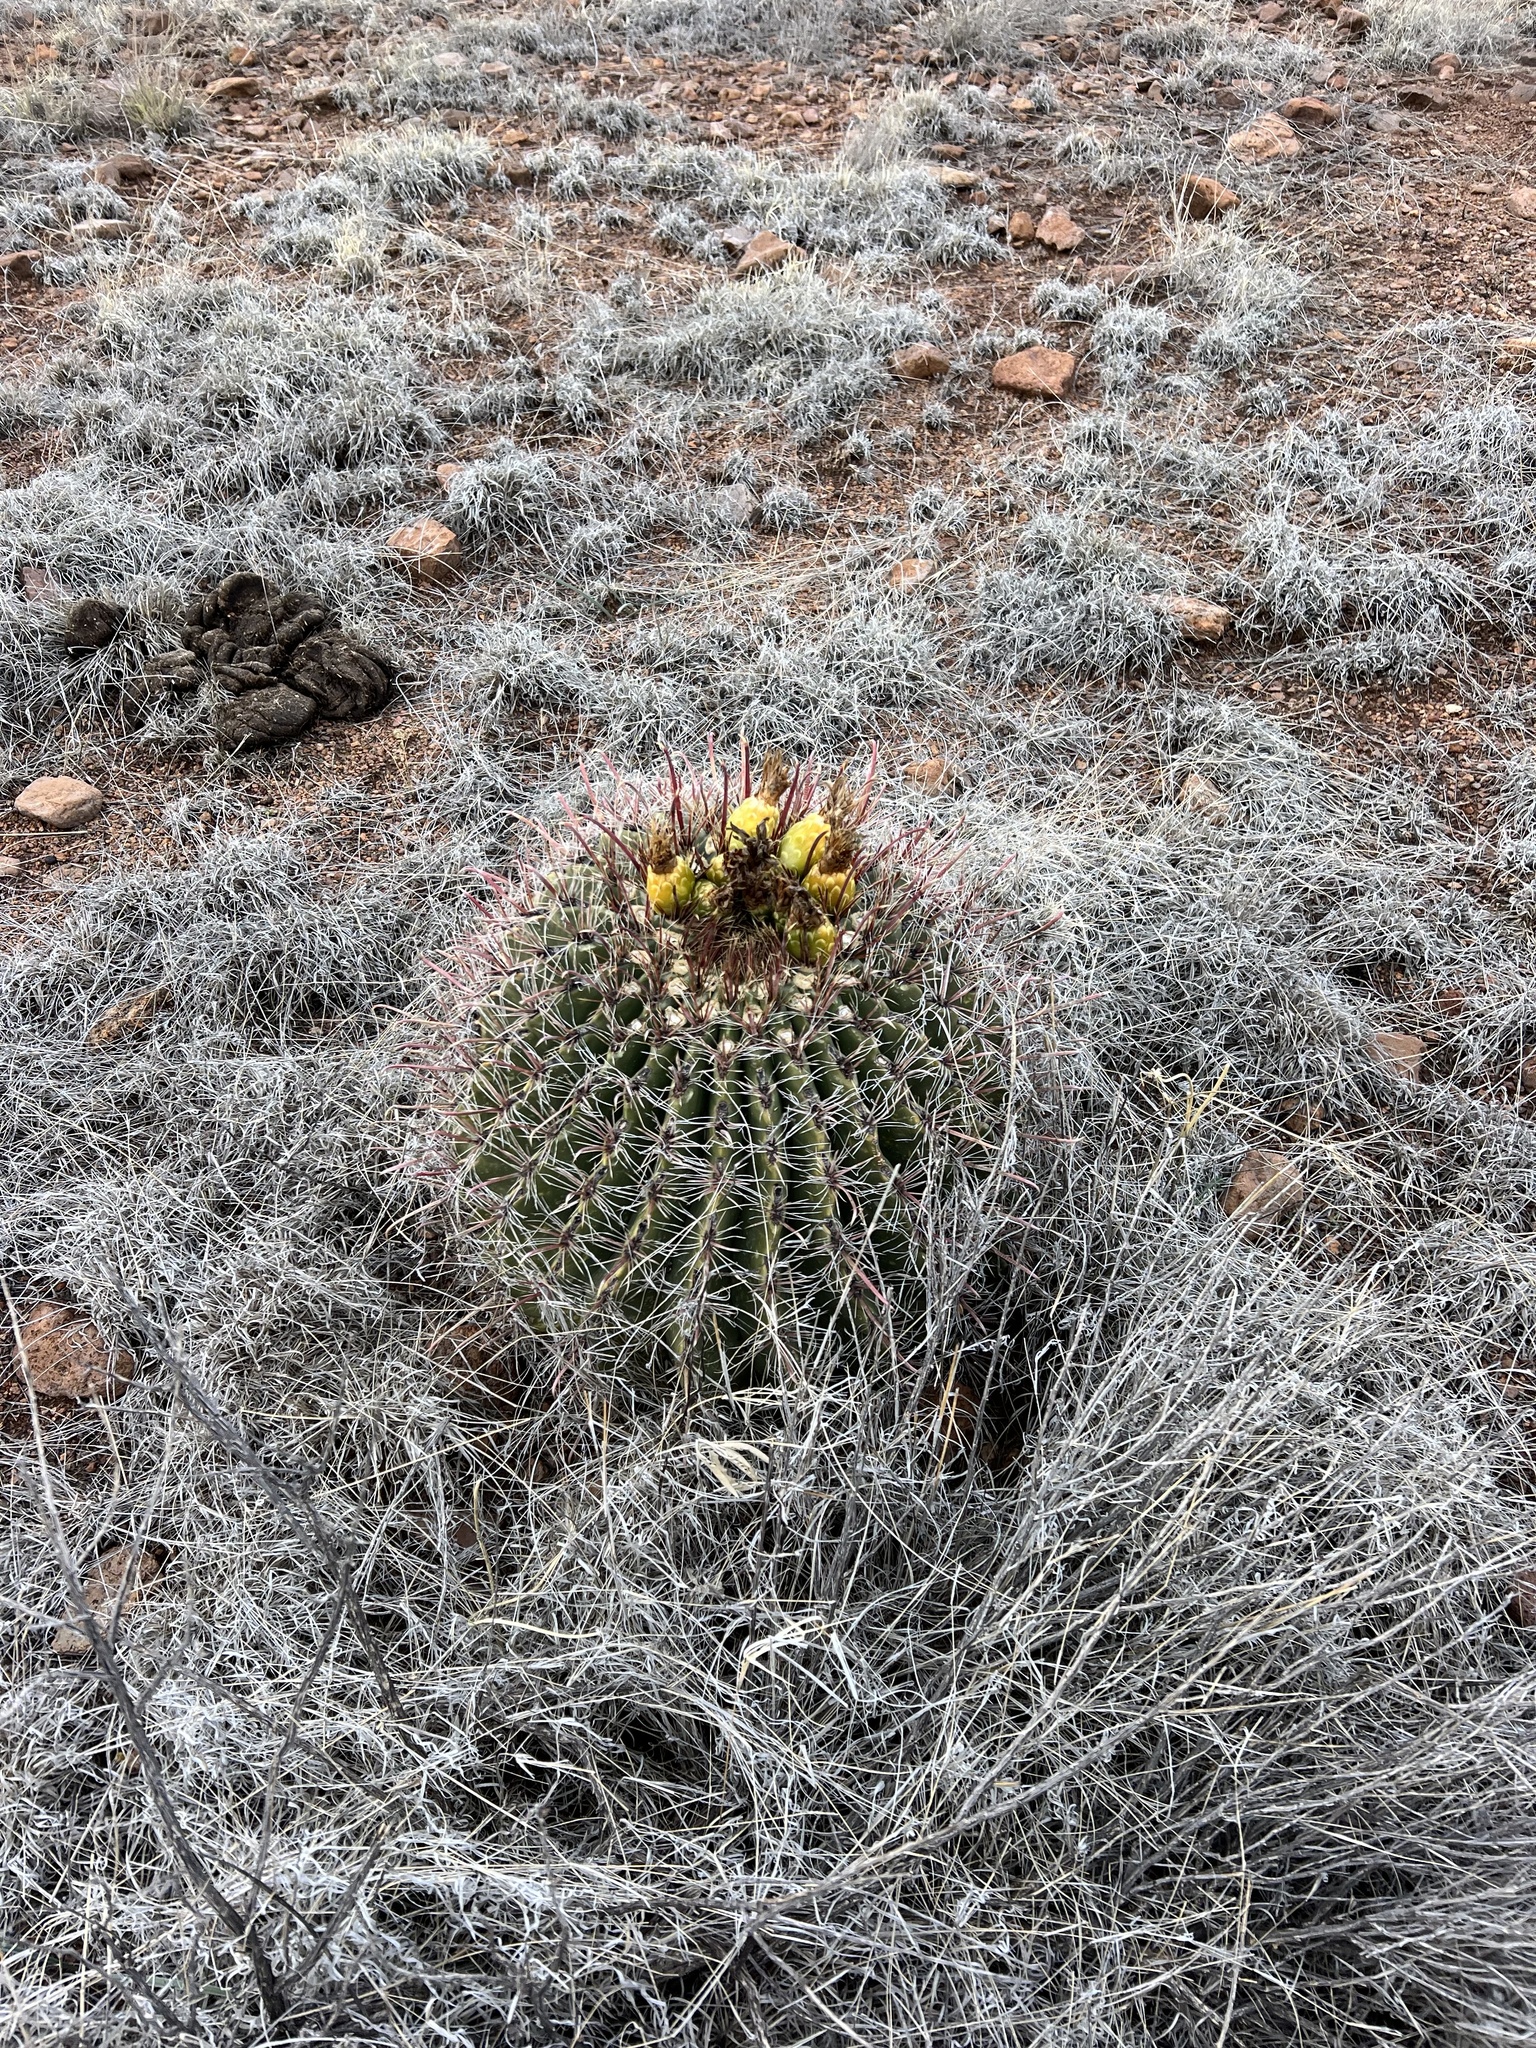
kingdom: Plantae
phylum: Tracheophyta
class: Magnoliopsida
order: Caryophyllales
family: Cactaceae
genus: Ferocactus
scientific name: Ferocactus wislizeni
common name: Candy barrel cactus
